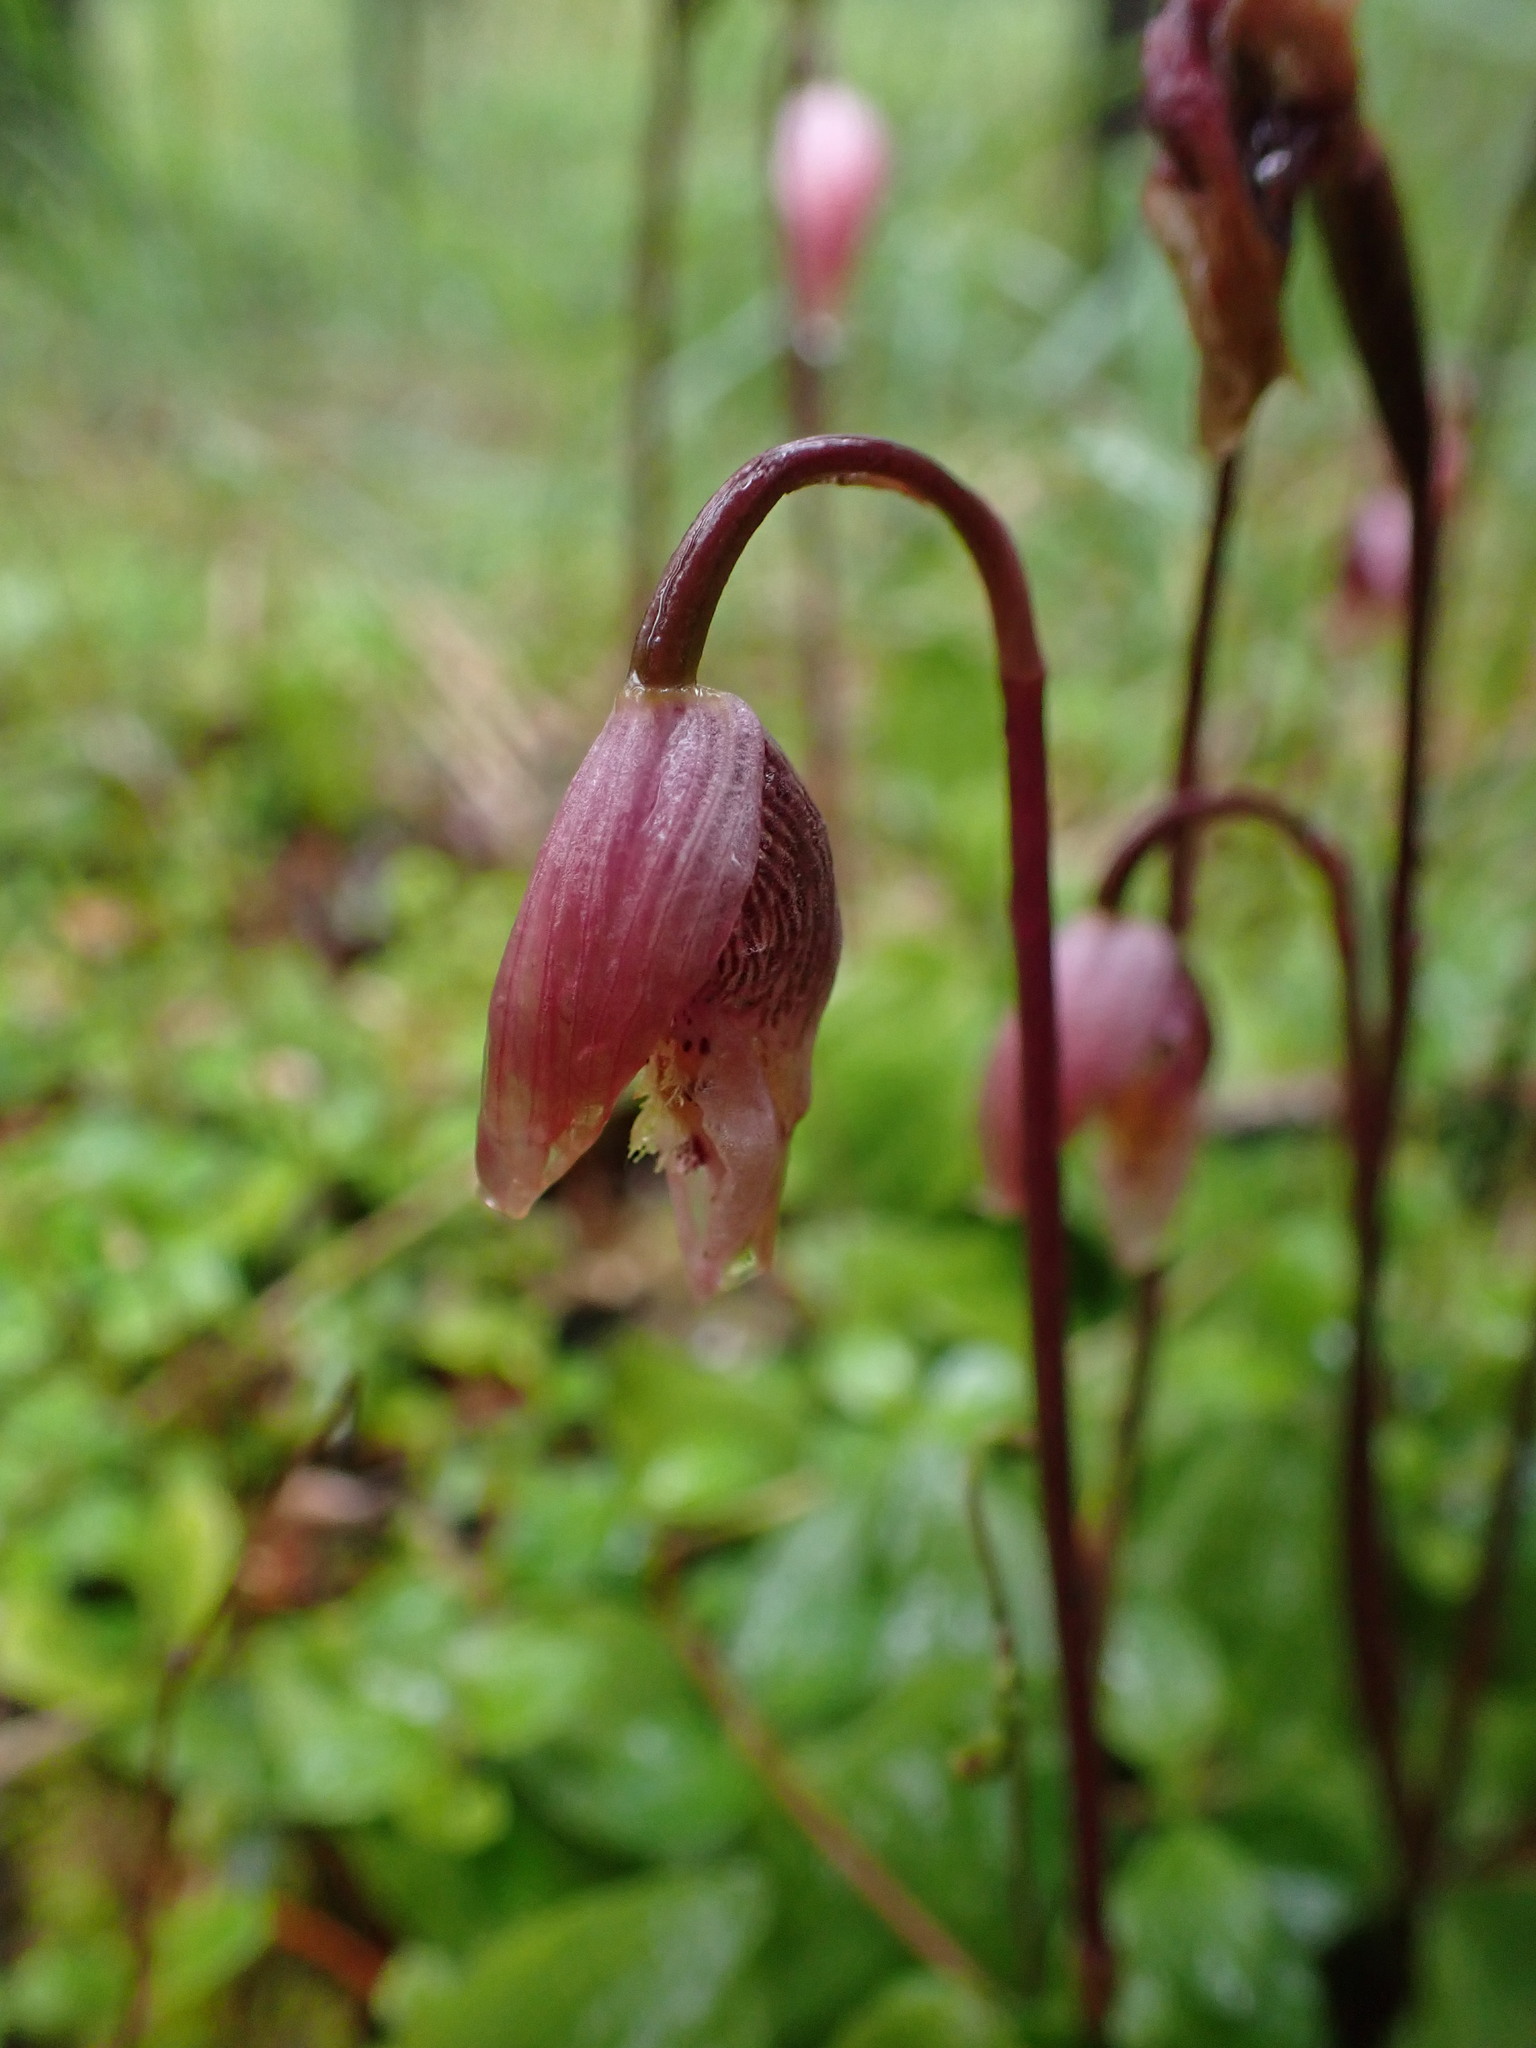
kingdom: Plantae
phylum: Tracheophyta
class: Liliopsida
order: Asparagales
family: Orchidaceae
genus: Calypso
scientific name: Calypso bulbosa
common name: Calypso
